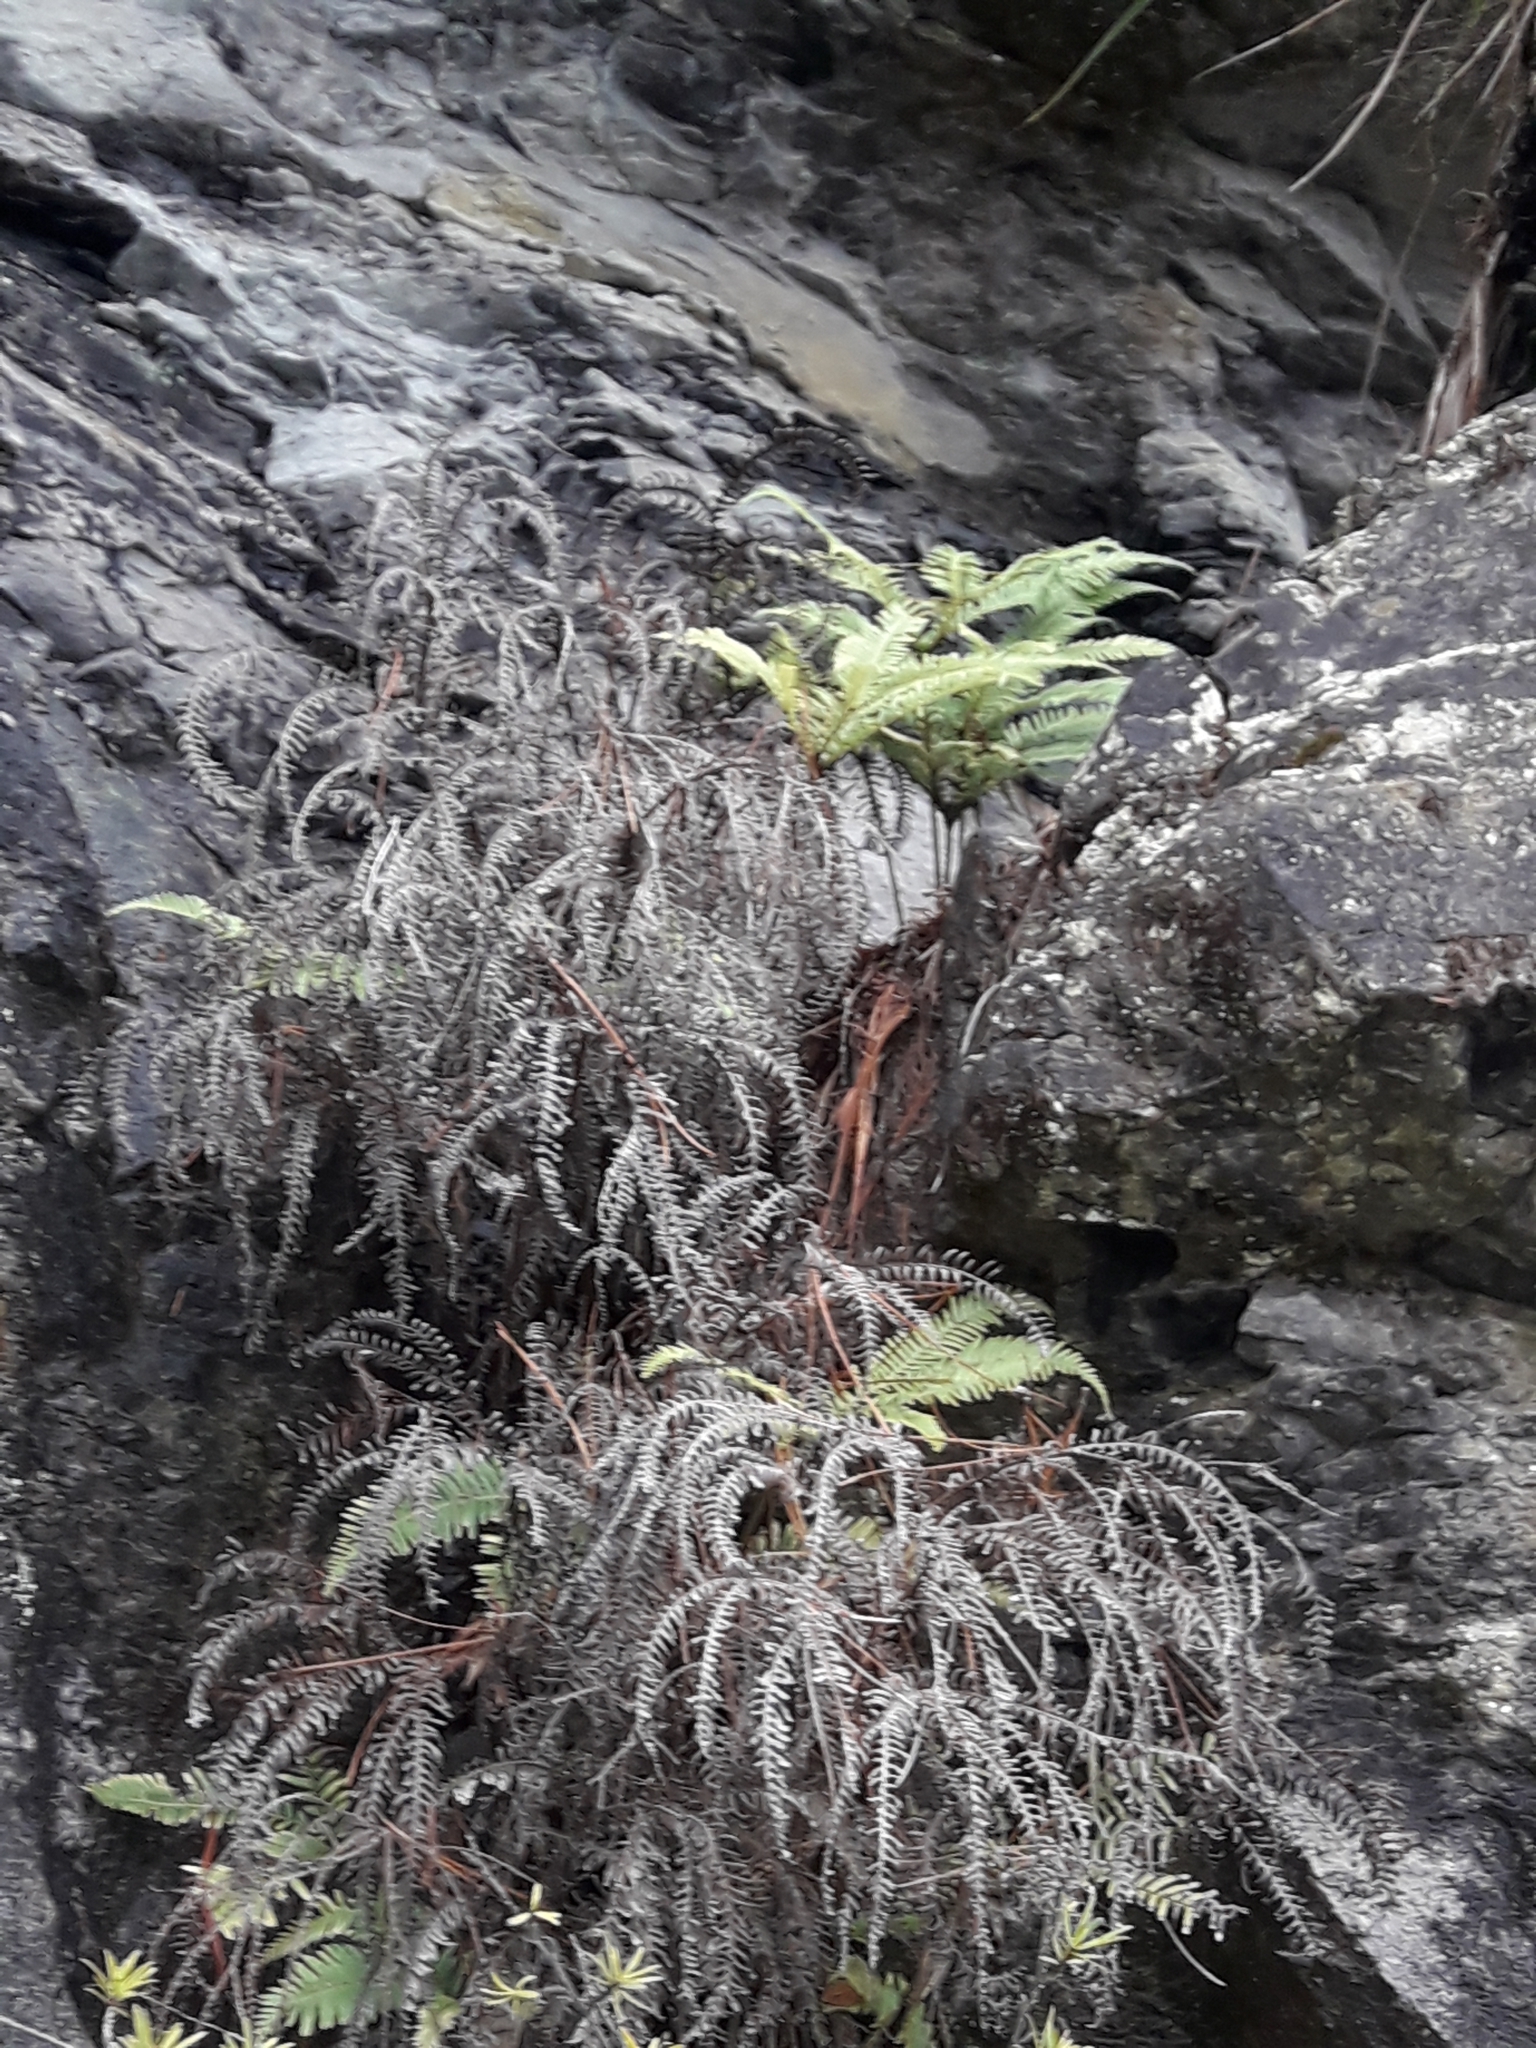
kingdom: Plantae
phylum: Tracheophyta
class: Polypodiopsida
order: Gleicheniales
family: Gleicheniaceae
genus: Sticherus
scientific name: Sticherus urceolatus
